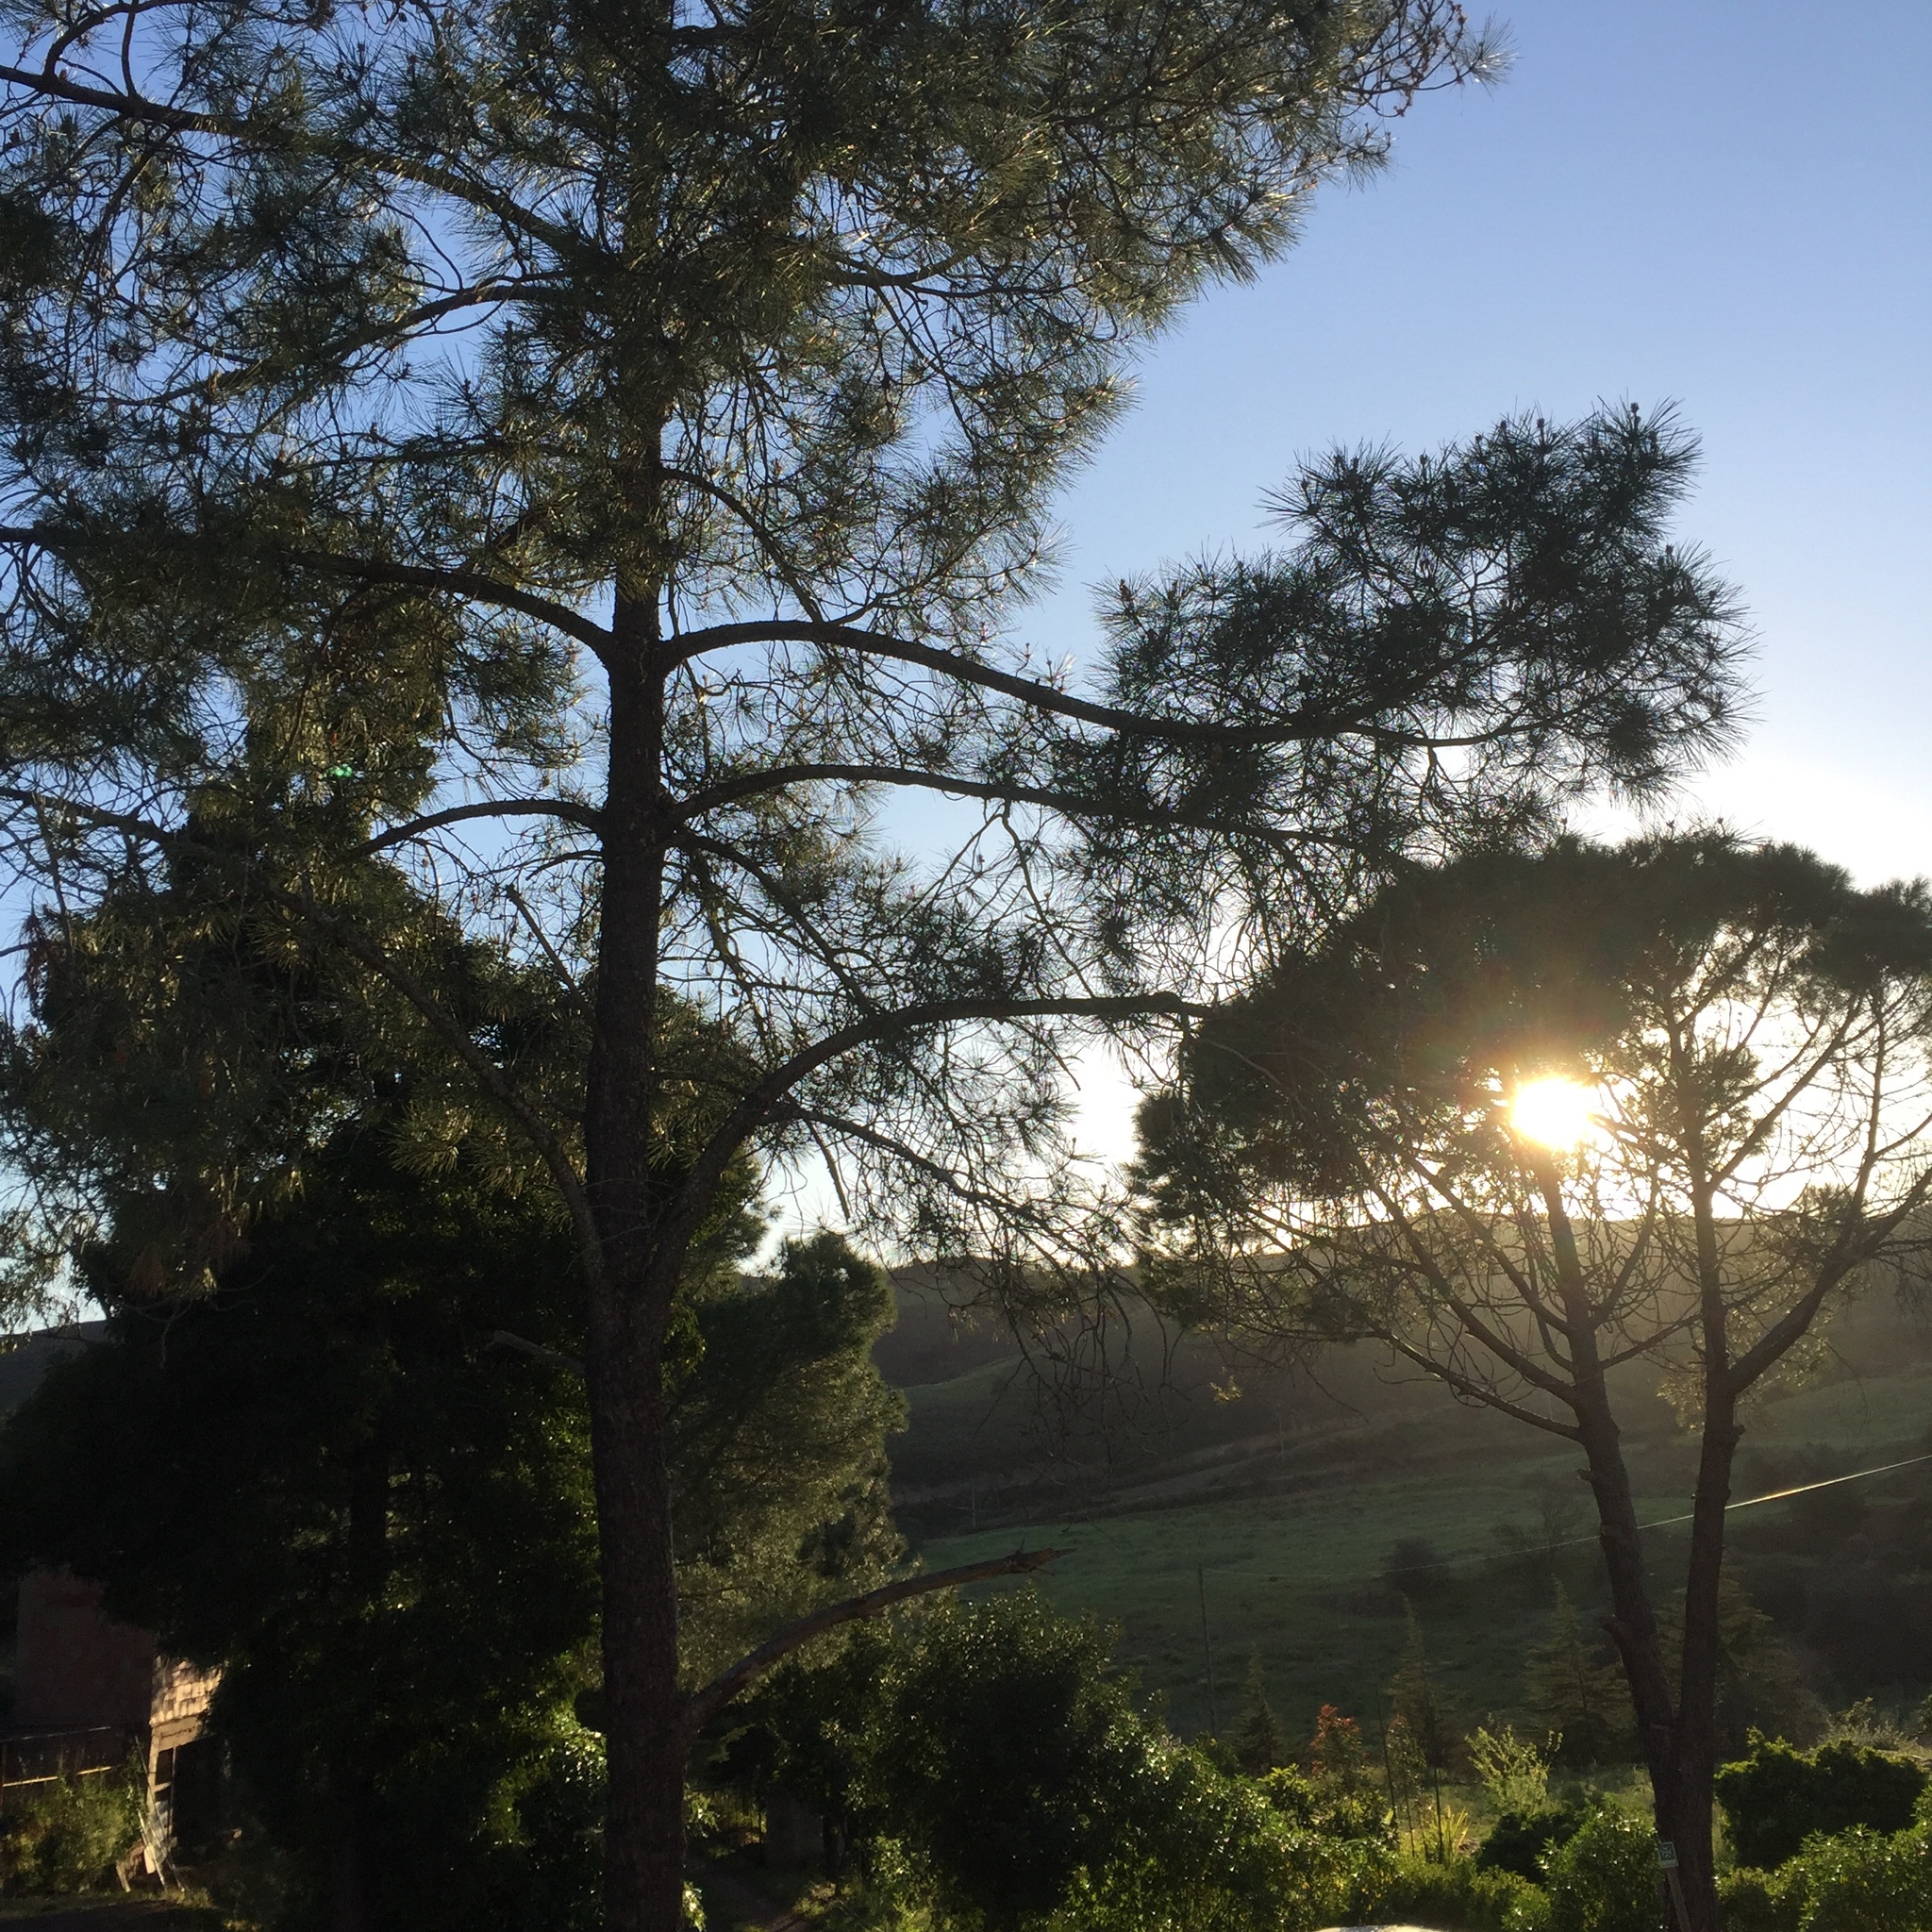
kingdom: Plantae
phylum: Tracheophyta
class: Pinopsida
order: Pinales
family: Pinaceae
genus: Pinus
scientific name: Pinus pinaster
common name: Maritime pine
